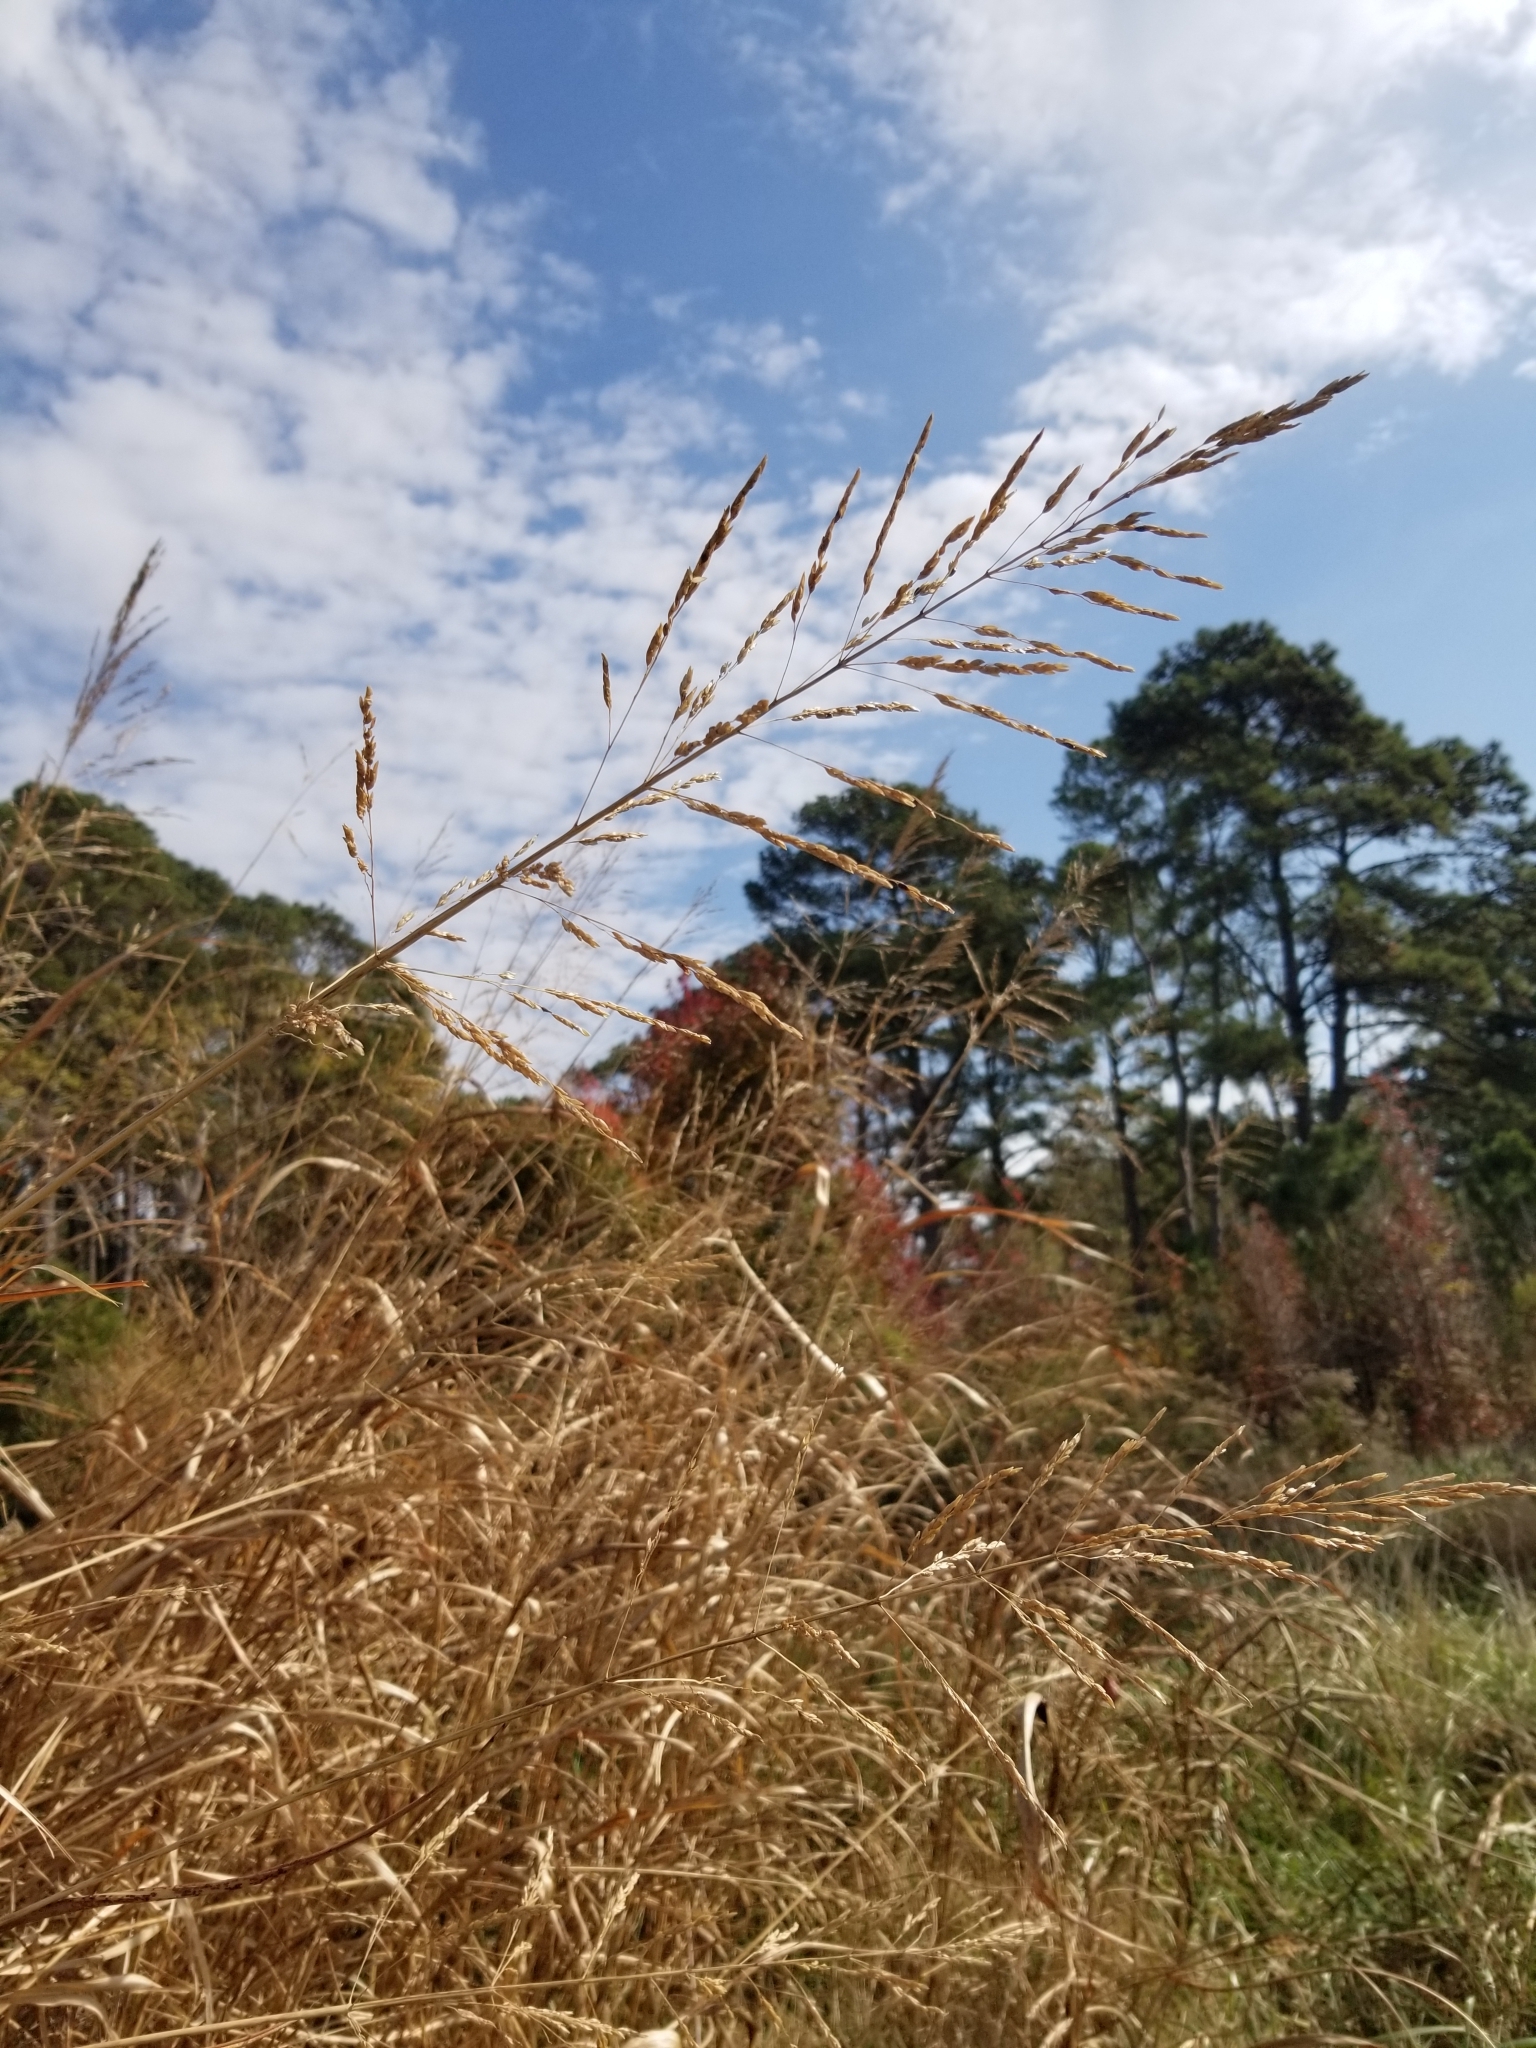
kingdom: Plantae
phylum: Tracheophyta
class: Liliopsida
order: Poales
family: Poaceae
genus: Sporobolus
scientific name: Sporobolus cynosuroides
